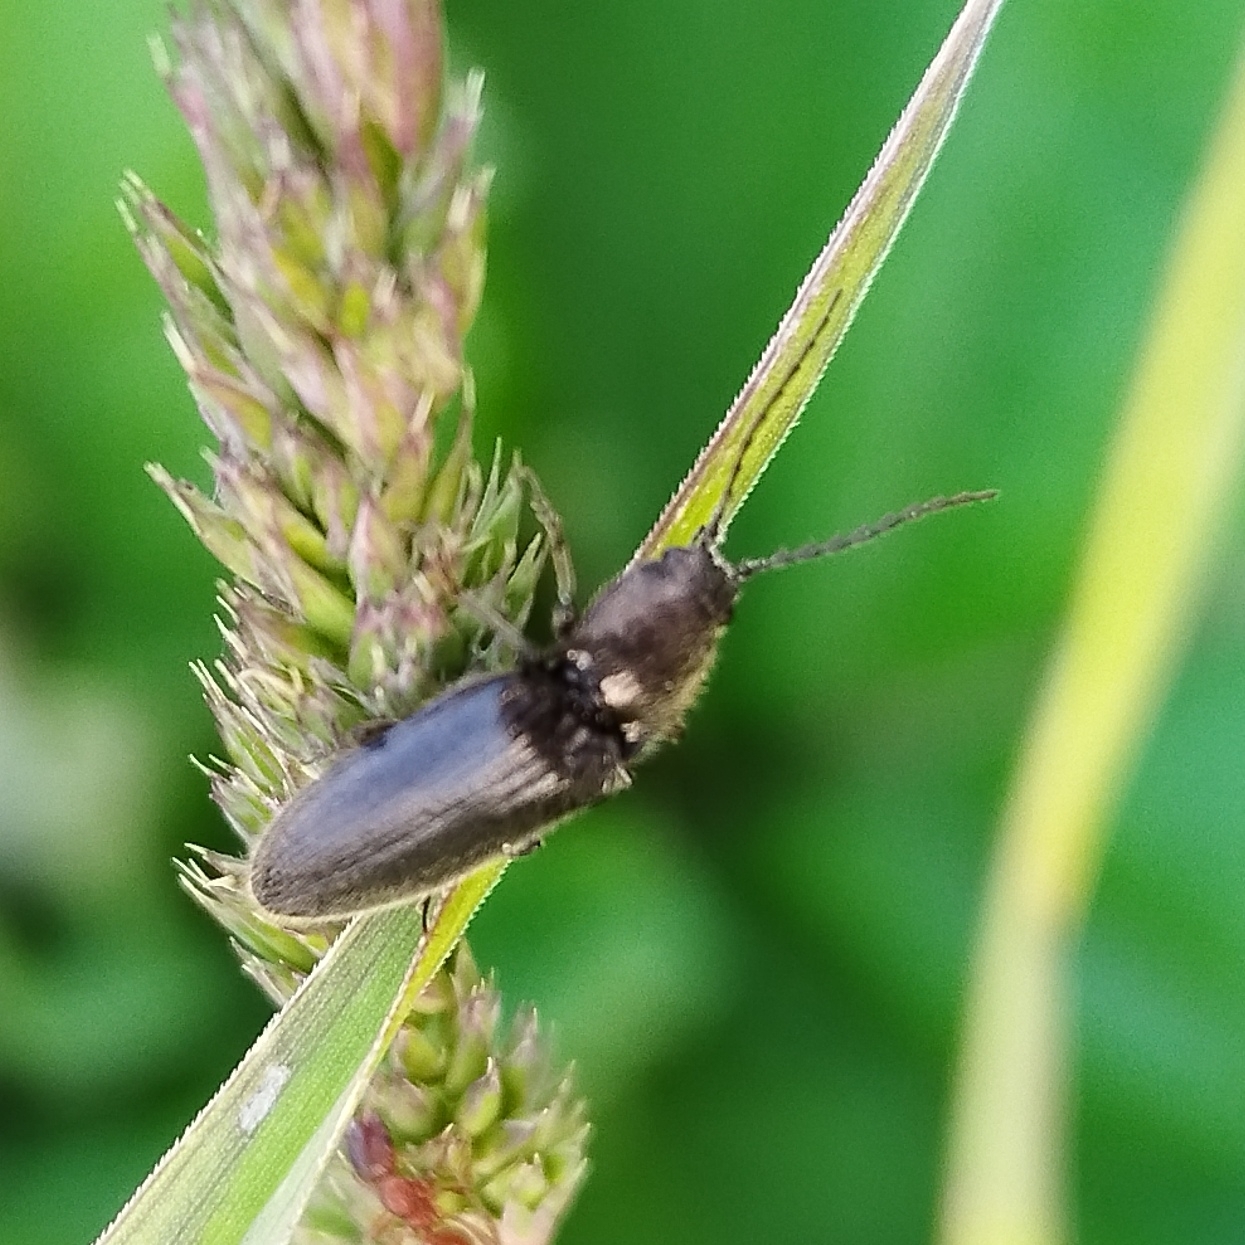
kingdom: Animalia
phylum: Arthropoda
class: Insecta
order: Coleoptera
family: Elateridae
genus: Hemicrepidius
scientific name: Hemicrepidius niger
